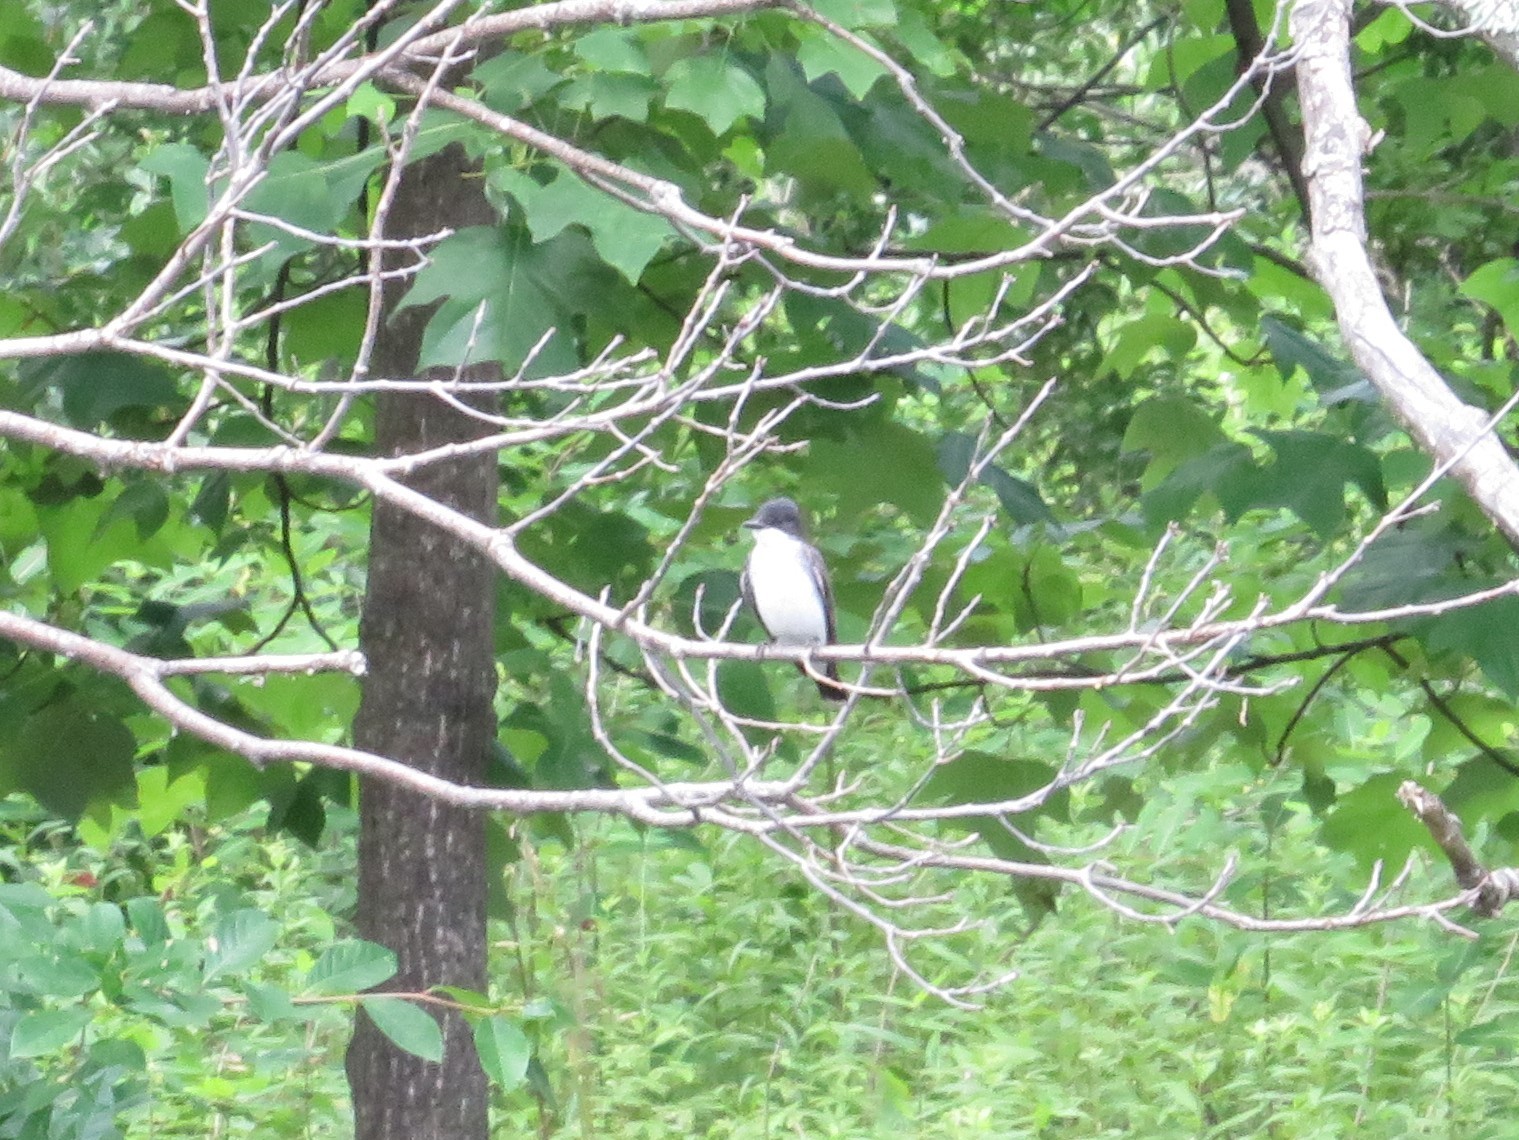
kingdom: Animalia
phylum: Chordata
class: Aves
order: Passeriformes
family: Tyrannidae
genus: Tyrannus
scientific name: Tyrannus tyrannus
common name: Eastern kingbird
